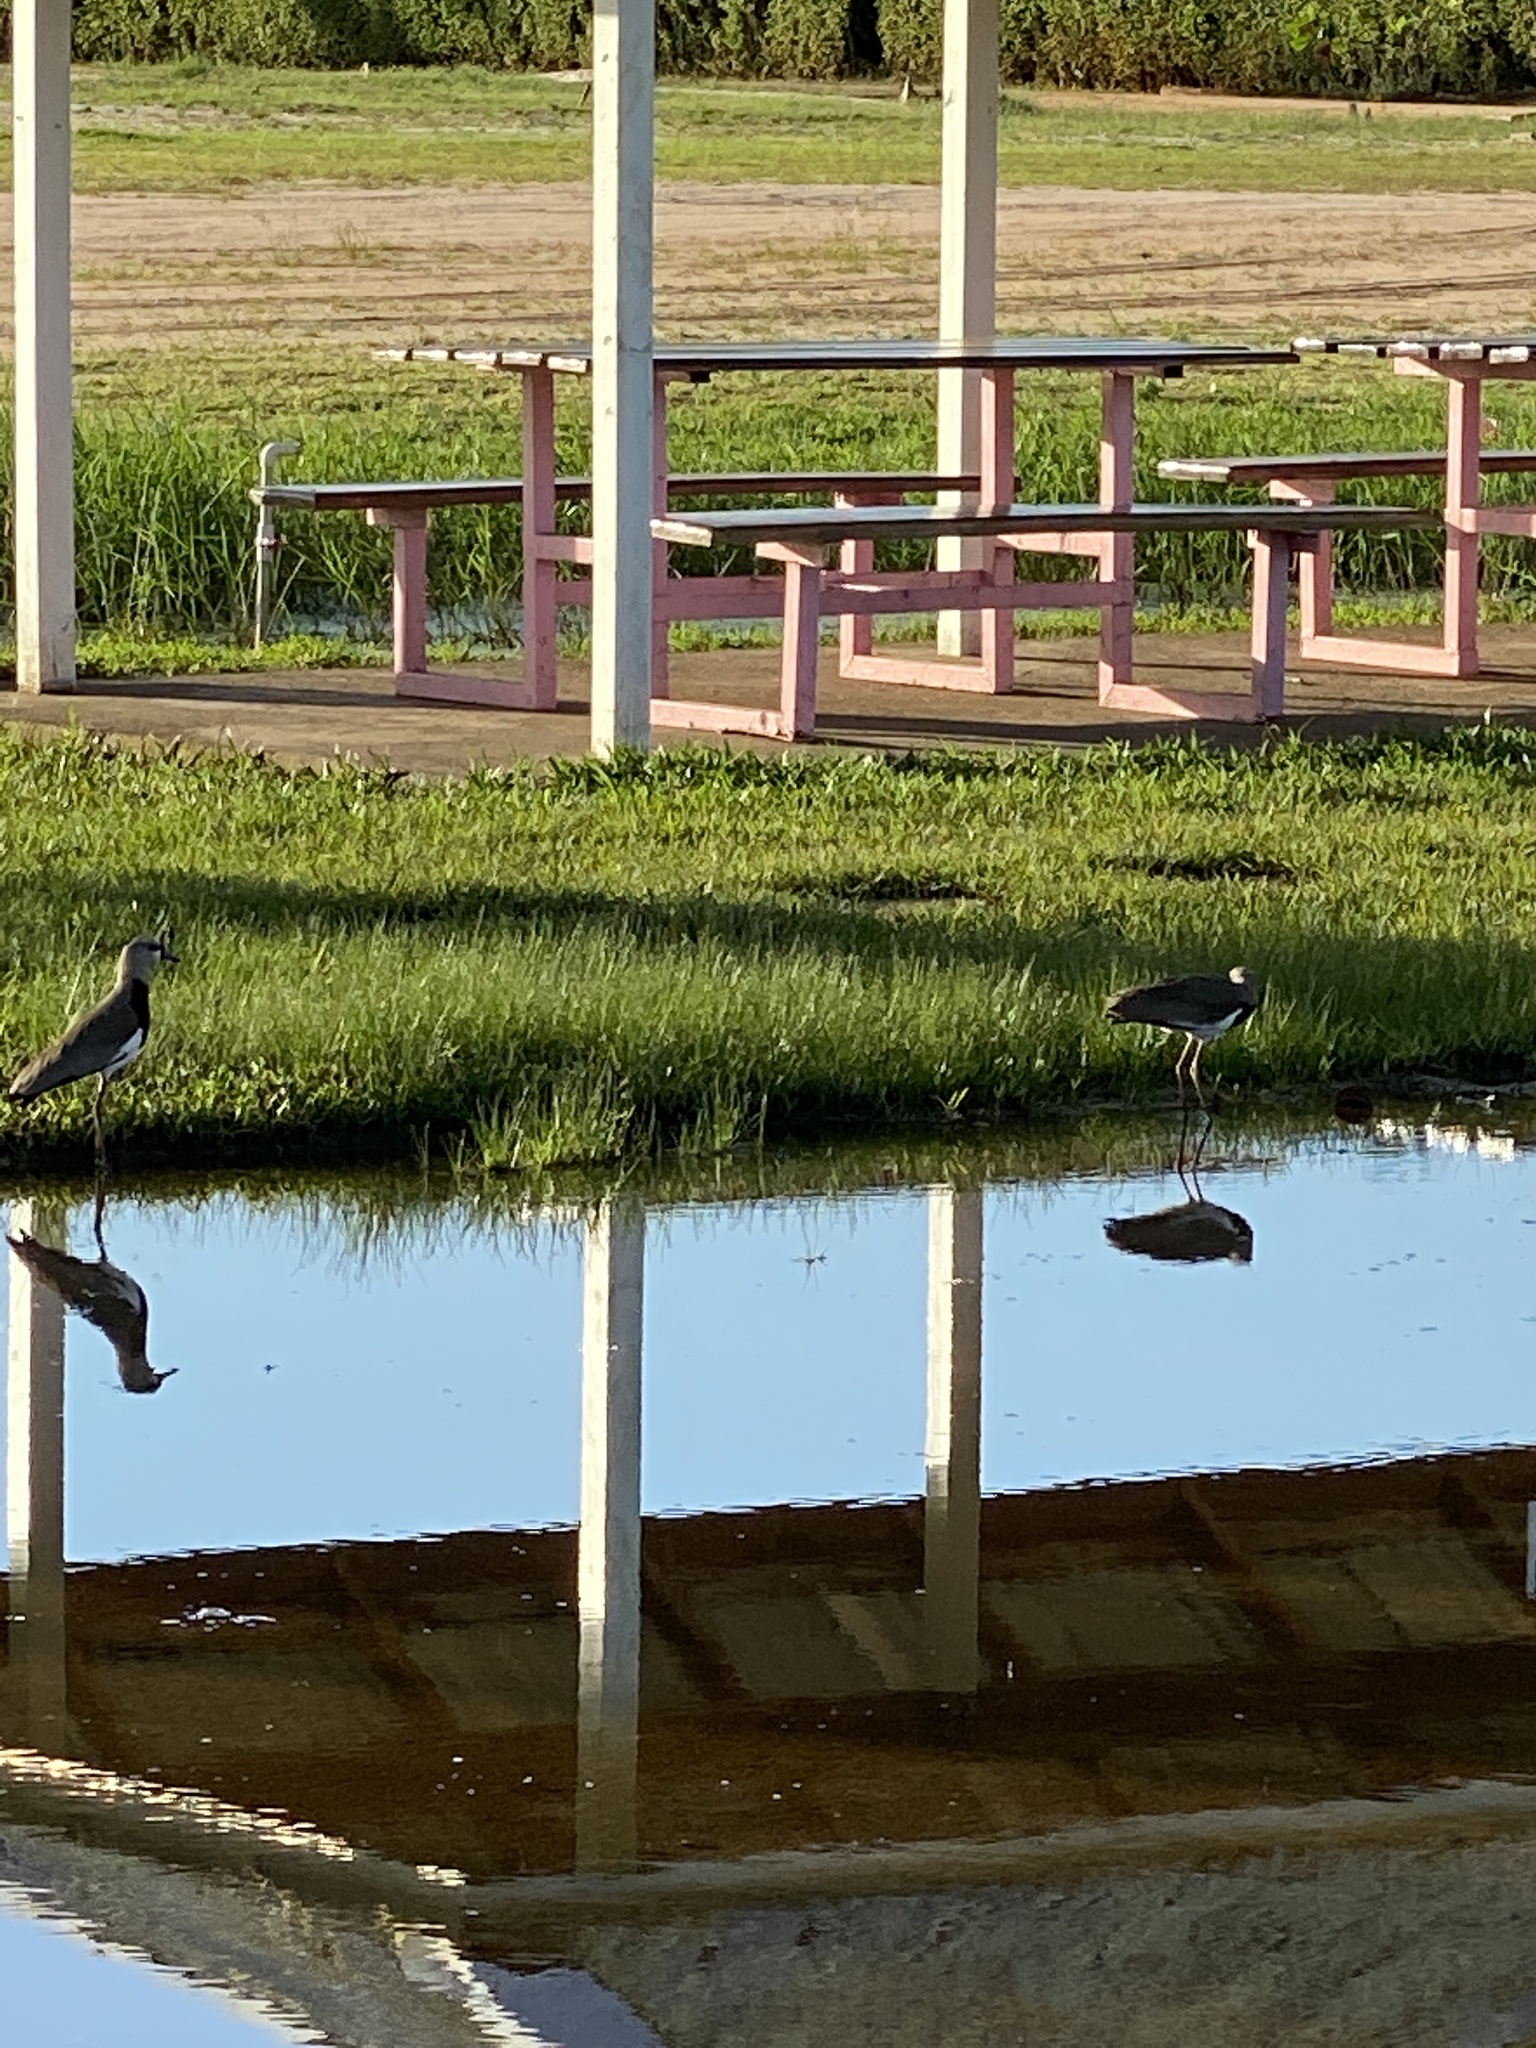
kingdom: Animalia
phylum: Chordata
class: Aves
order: Charadriiformes
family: Charadriidae
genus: Vanellus
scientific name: Vanellus chilensis
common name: Southern lapwing
